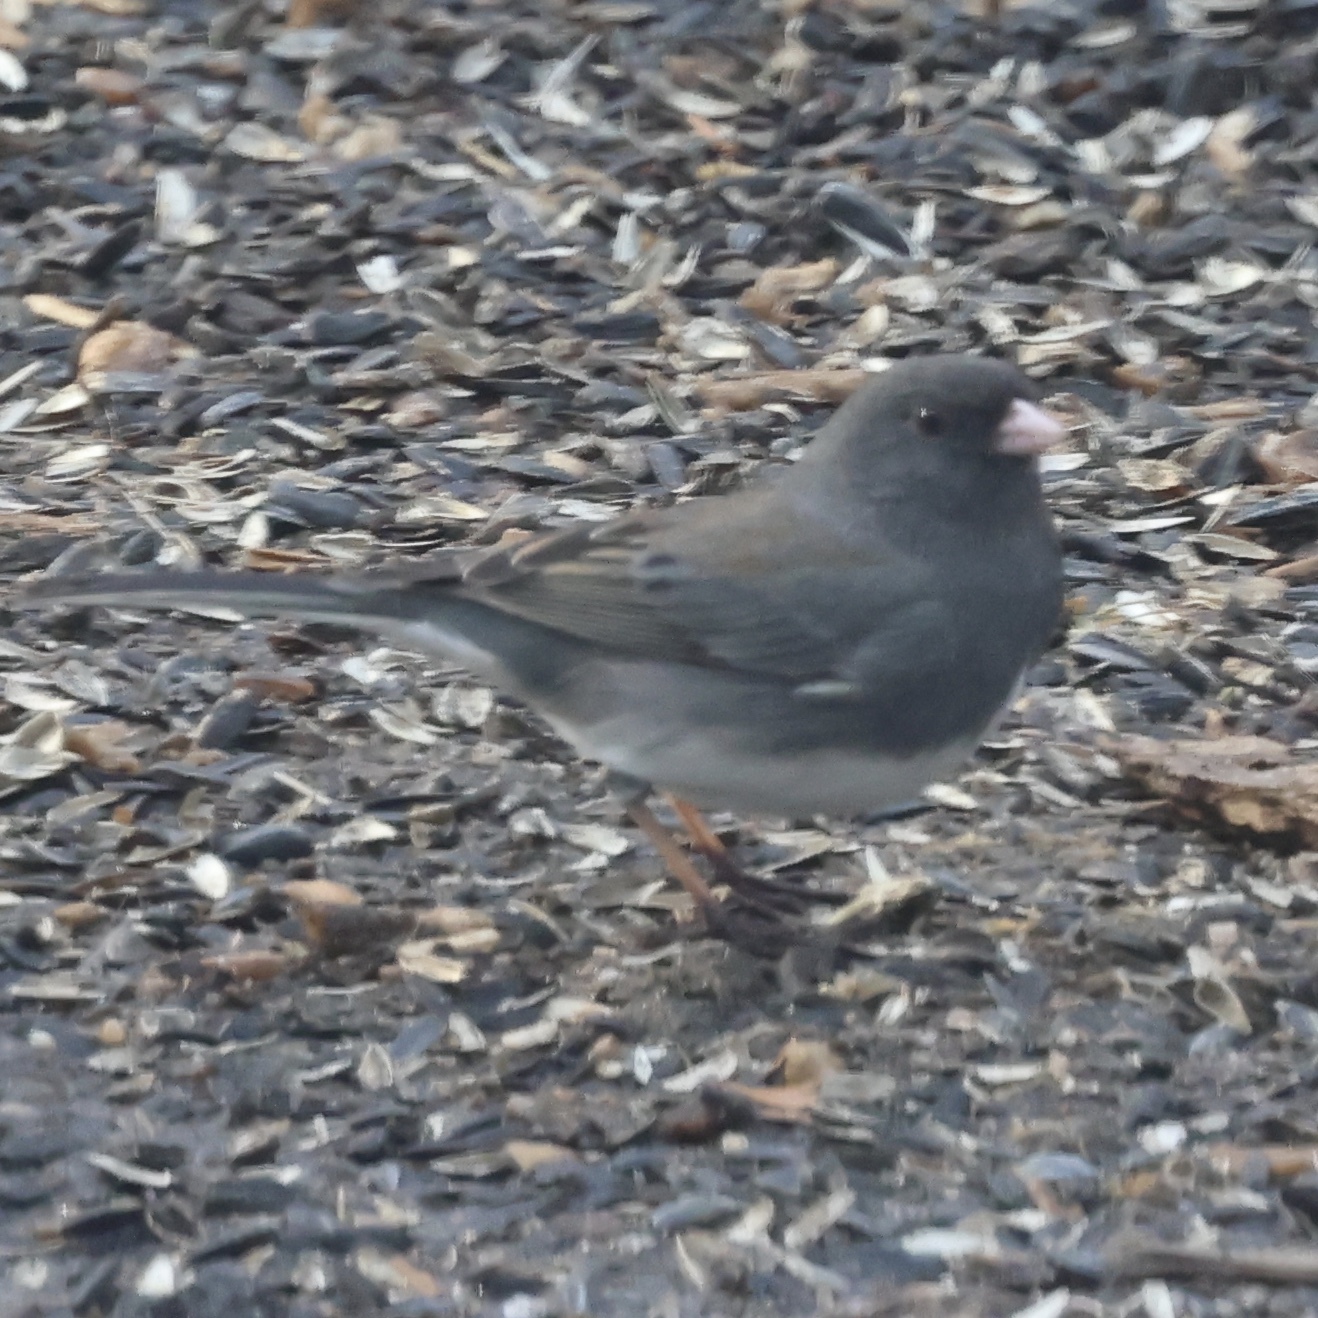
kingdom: Animalia
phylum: Chordata
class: Aves
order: Passeriformes
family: Passerellidae
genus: Junco
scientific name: Junco hyemalis
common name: Dark-eyed junco
